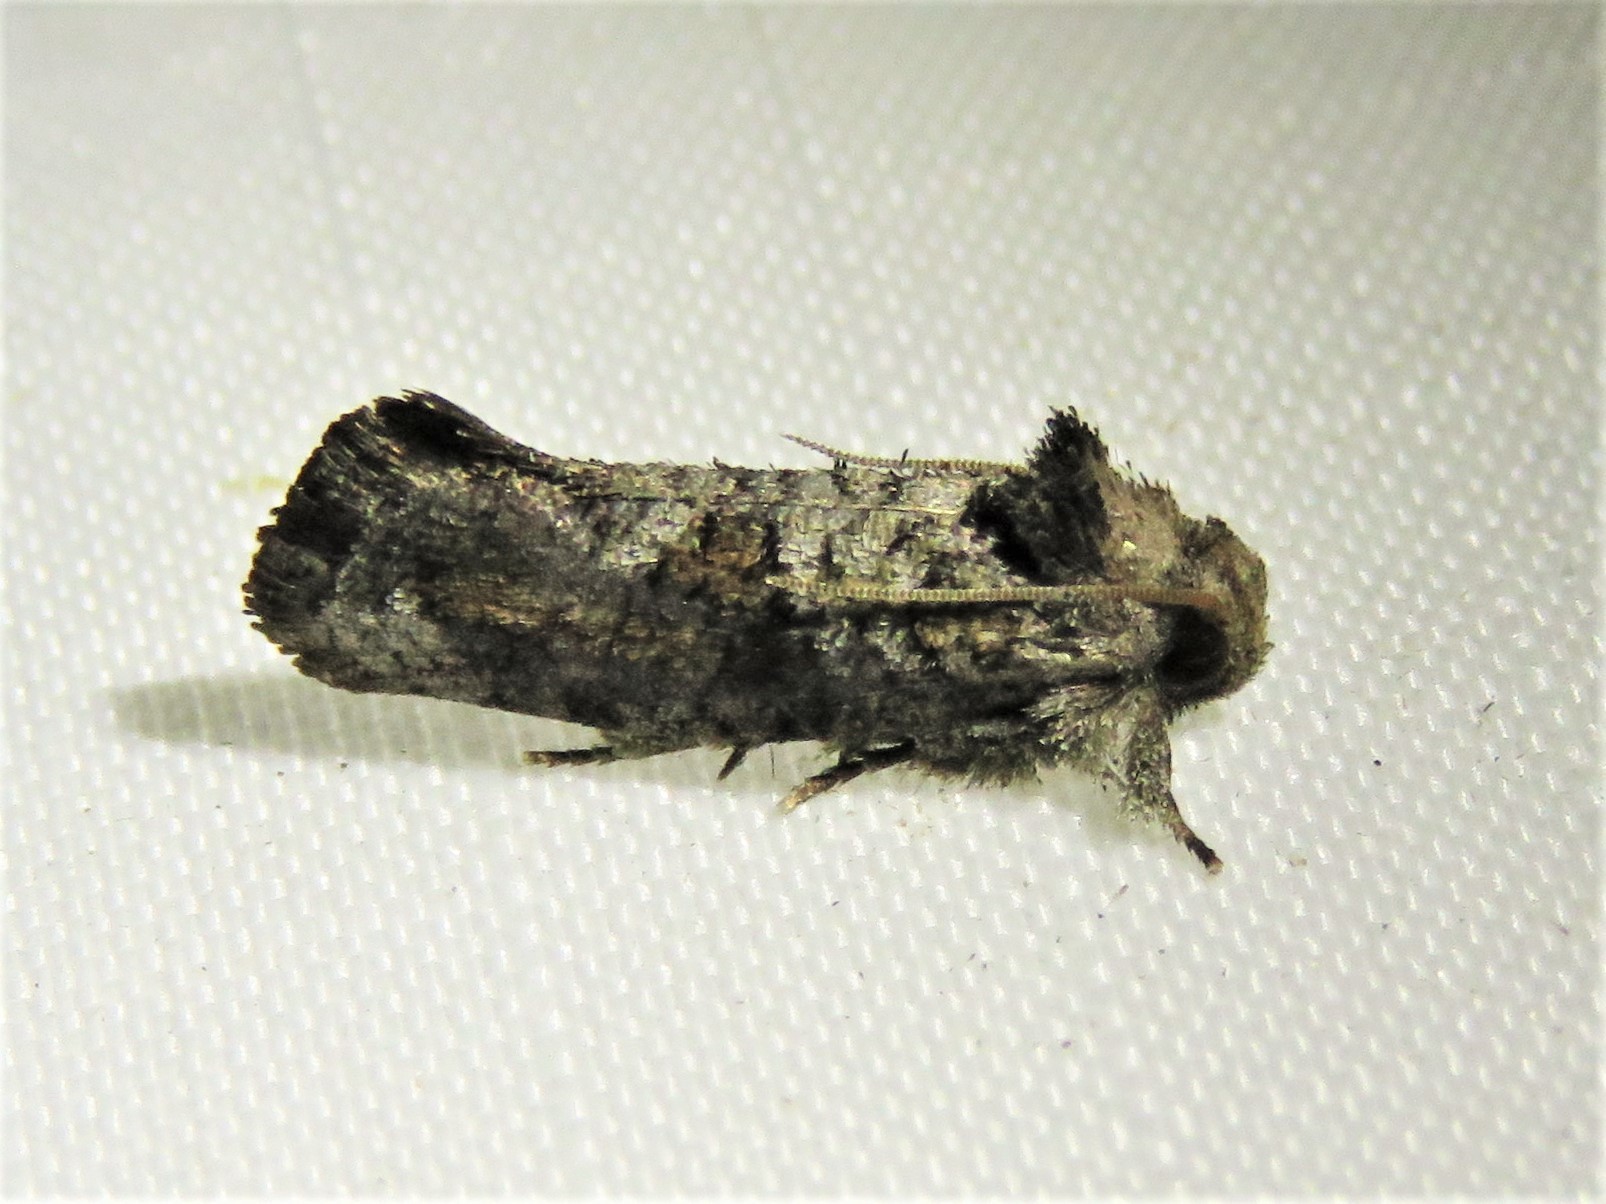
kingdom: Animalia
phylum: Arthropoda
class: Insecta
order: Lepidoptera
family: Tineidae
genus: Acrolophus
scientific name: Acrolophus piger
